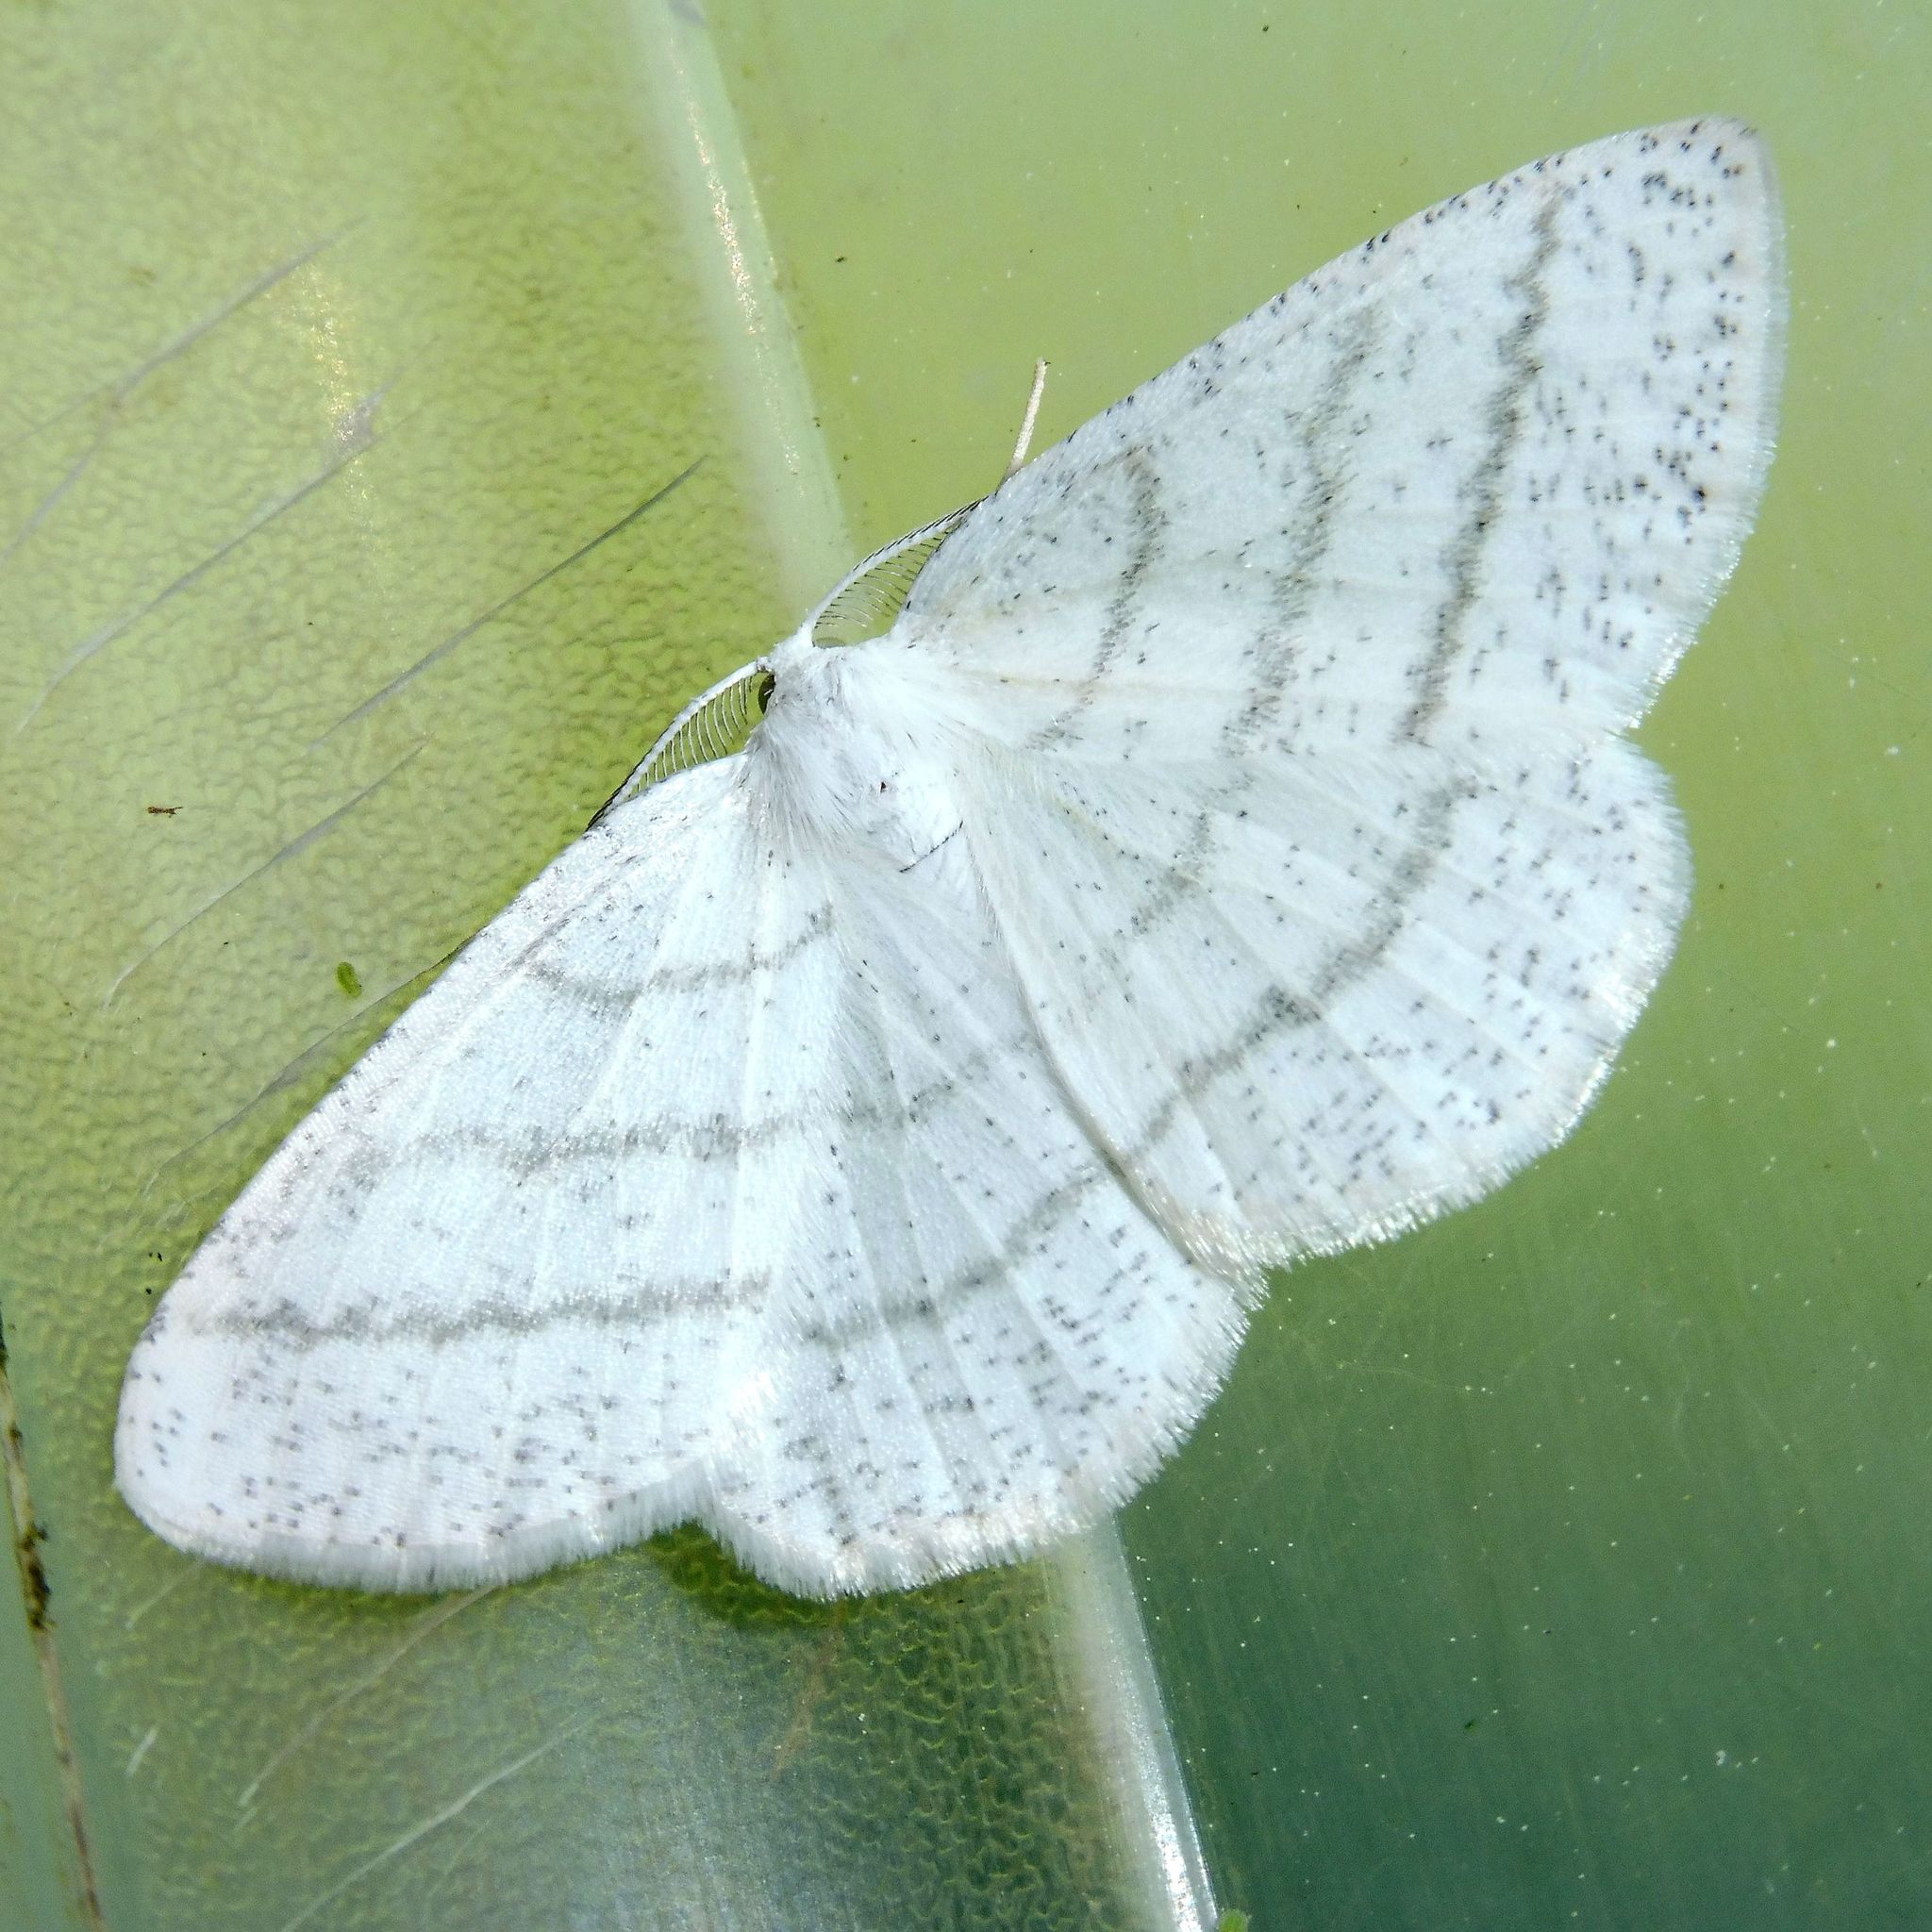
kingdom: Animalia
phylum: Arthropoda
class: Insecta
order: Lepidoptera
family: Geometridae
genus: Cabera
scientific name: Cabera pusaria
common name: Common white wave
